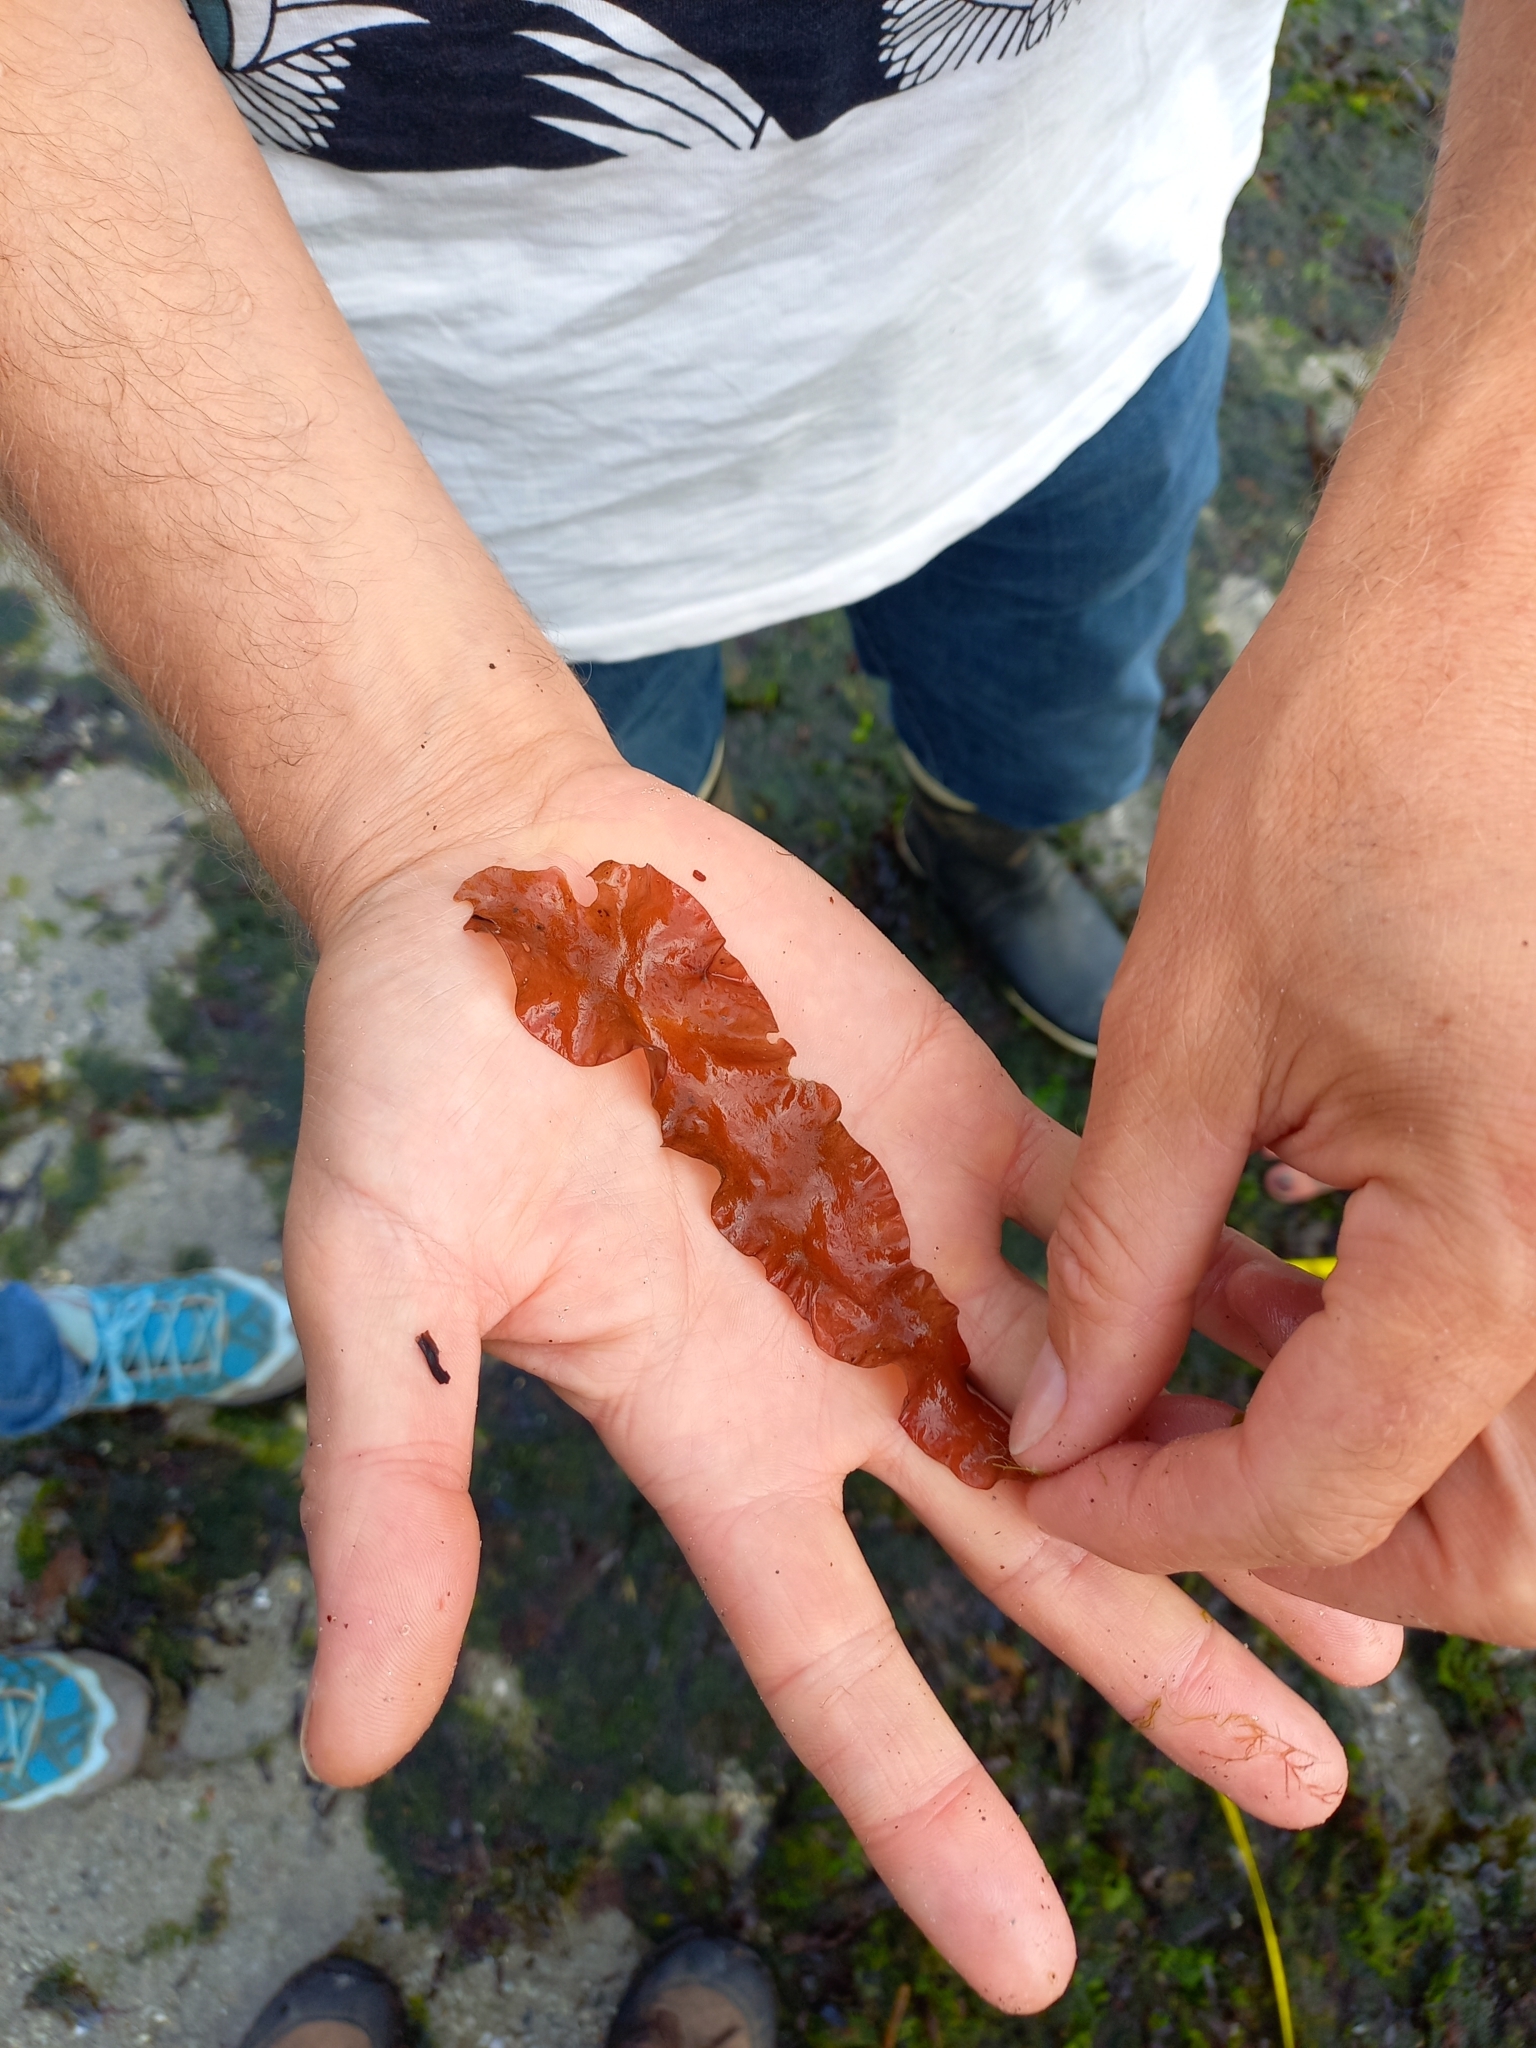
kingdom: Plantae
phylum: Rhodophyta
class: Florideophyceae
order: Halymeniales
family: Halymeniaceae
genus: Grateloupia
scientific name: Grateloupia turuturu
